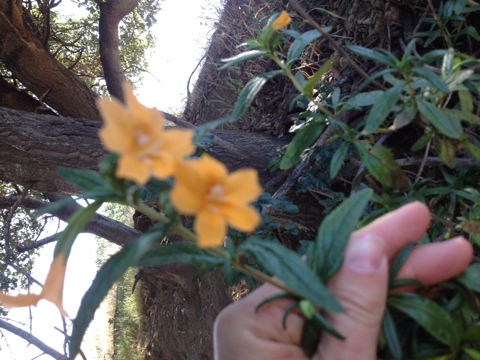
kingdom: Plantae
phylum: Tracheophyta
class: Magnoliopsida
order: Lamiales
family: Phrymaceae
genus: Diplacus
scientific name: Diplacus aurantiacus
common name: Bush monkey-flower
